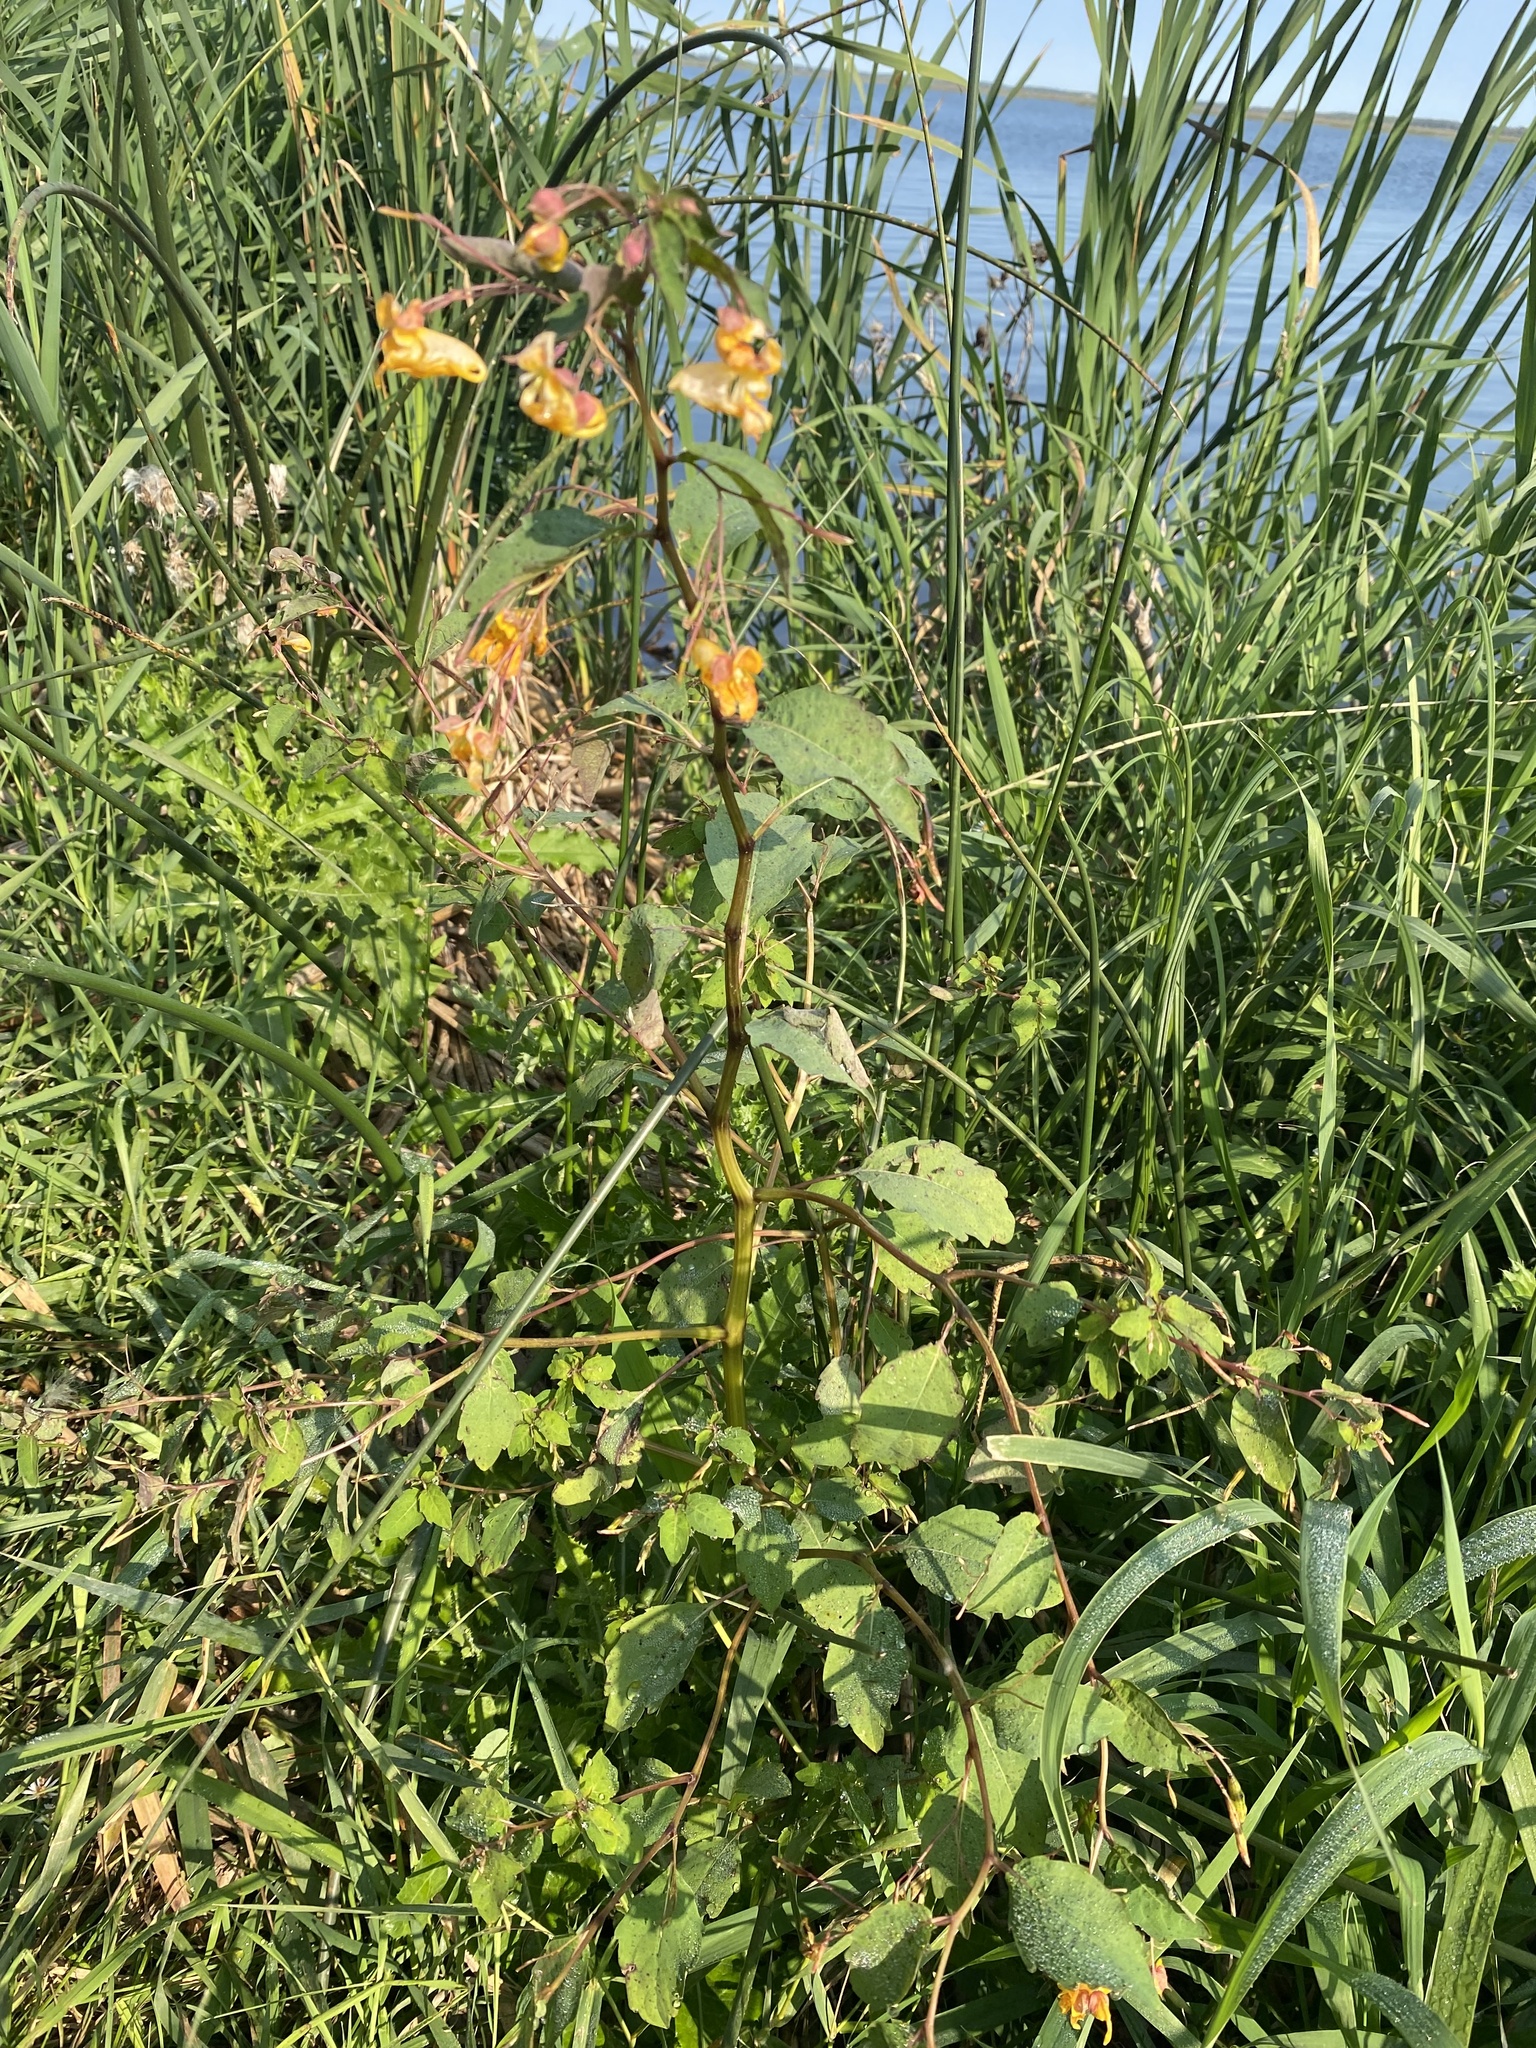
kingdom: Plantae
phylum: Tracheophyta
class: Magnoliopsida
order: Ericales
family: Balsaminaceae
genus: Impatiens
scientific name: Impatiens capensis
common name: Orange balsam
